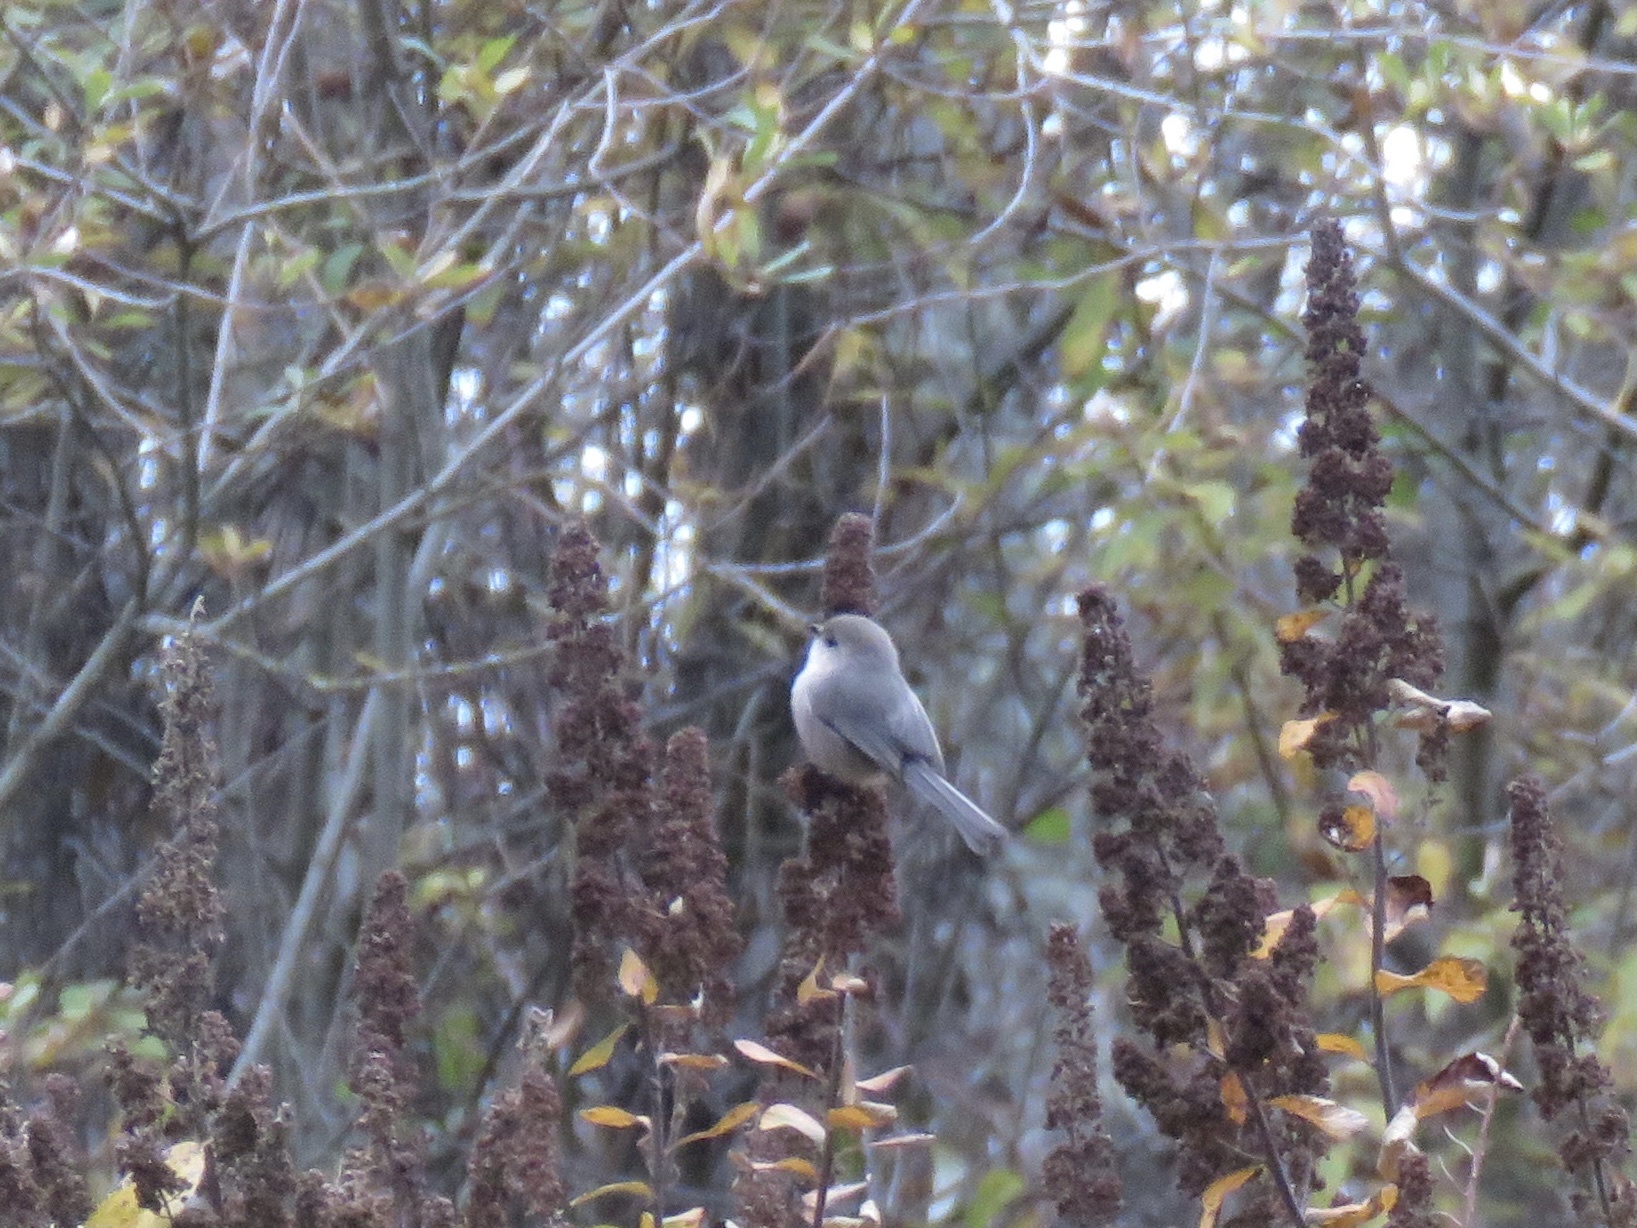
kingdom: Animalia
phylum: Chordata
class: Aves
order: Passeriformes
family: Aegithalidae
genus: Psaltriparus
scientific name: Psaltriparus minimus
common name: American bushtit
